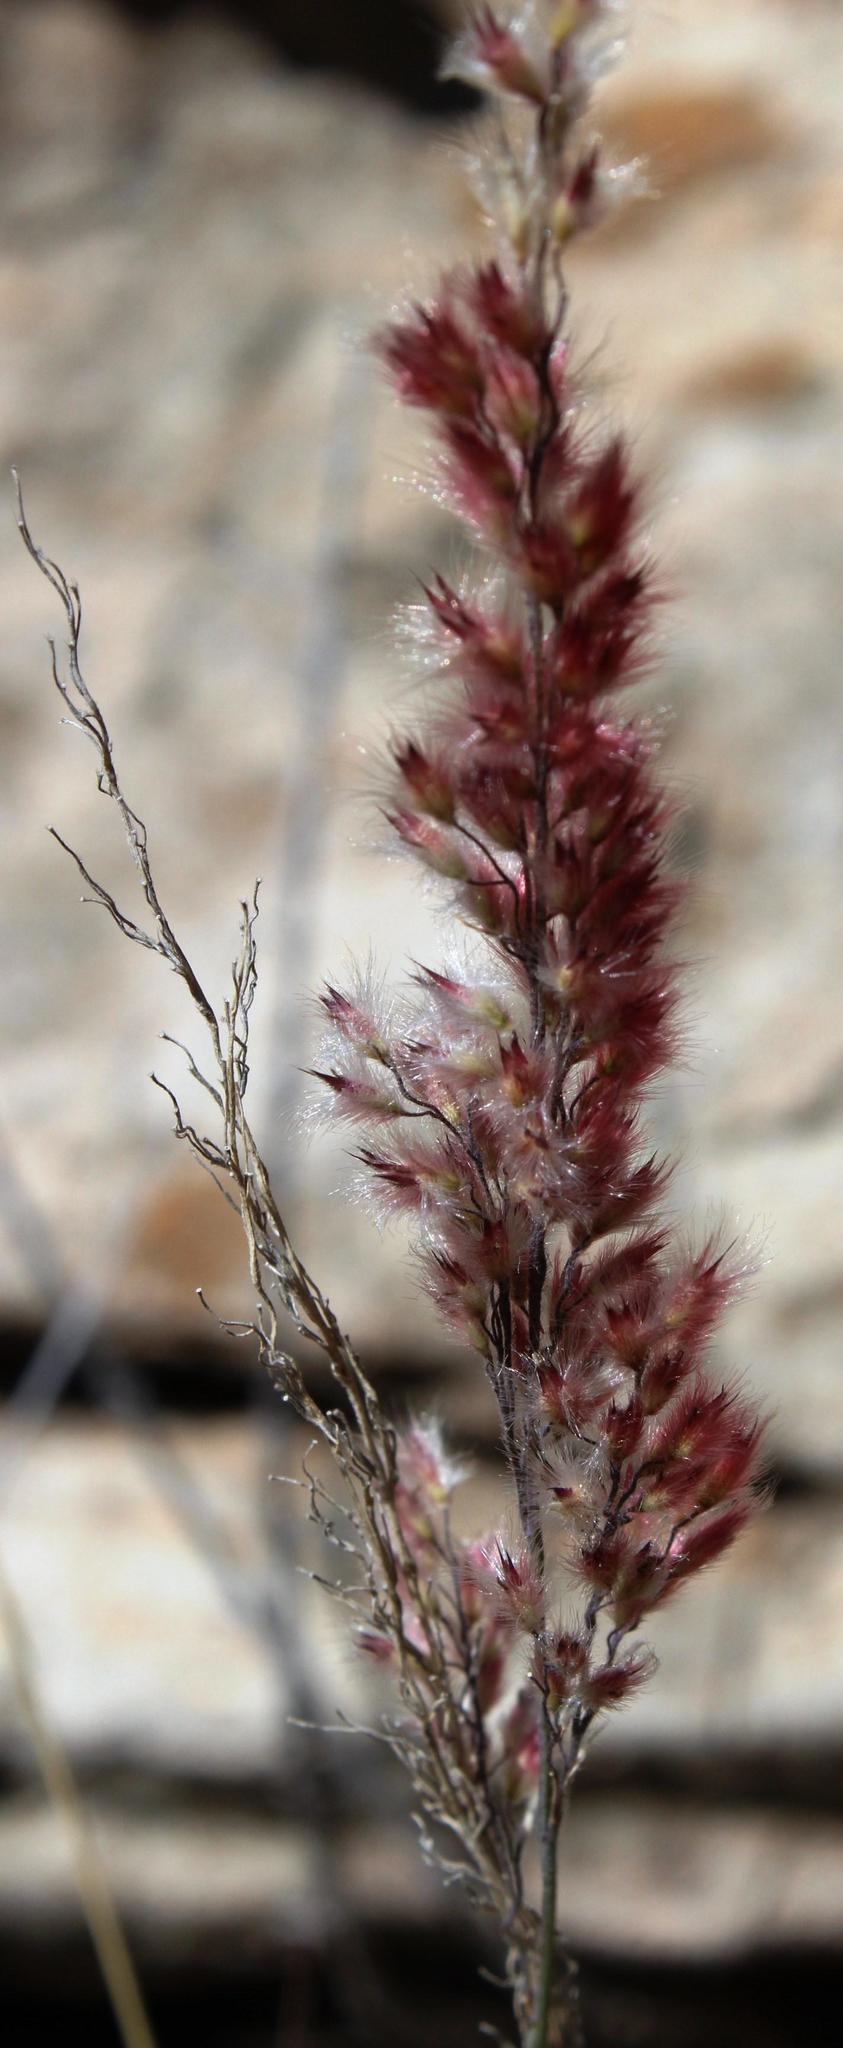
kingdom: Plantae
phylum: Tracheophyta
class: Liliopsida
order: Poales
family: Poaceae
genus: Melinis
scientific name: Melinis nerviglumis
